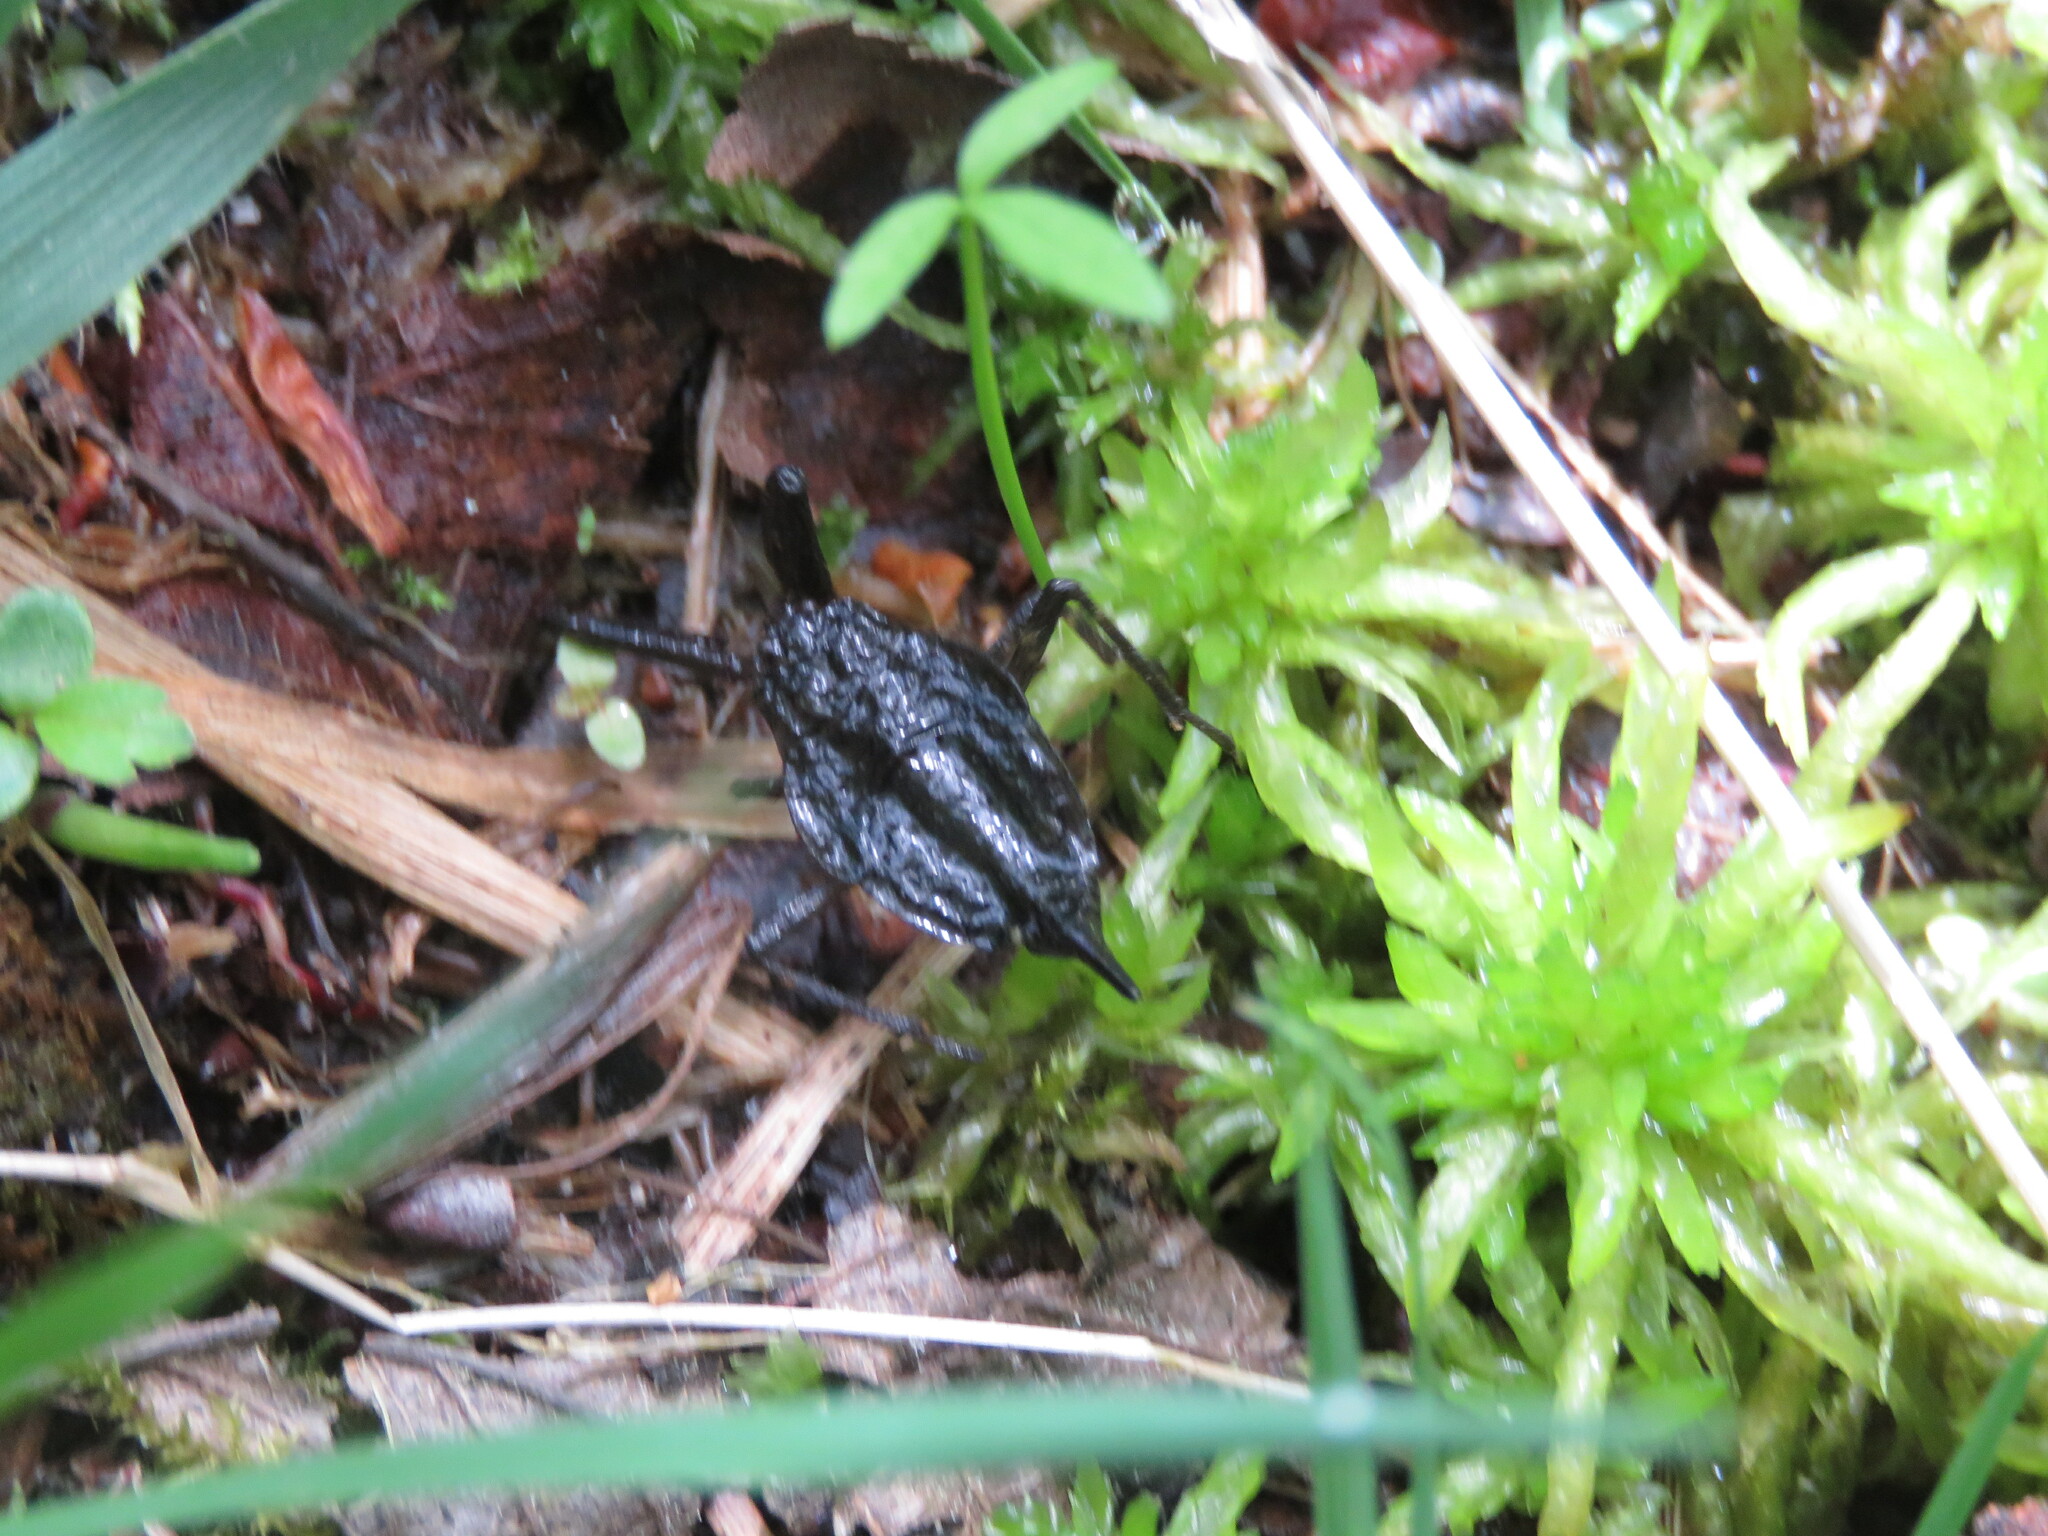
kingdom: Animalia
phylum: Arthropoda
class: Insecta
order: Hemiptera
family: Nepidae
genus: Nepa
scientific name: Nepa cinerea
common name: Water scorpion
